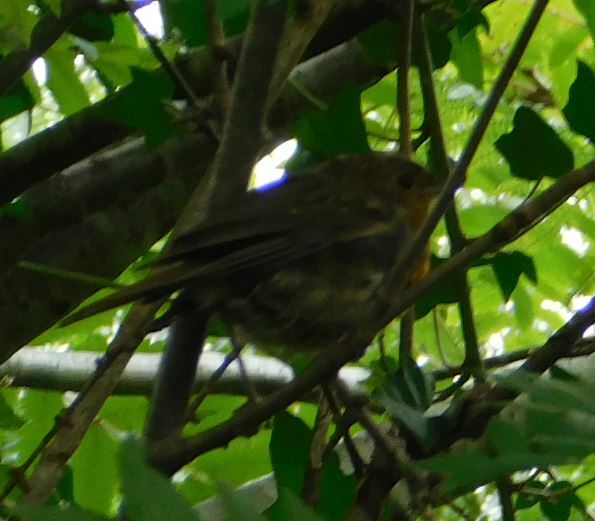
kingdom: Animalia
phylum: Chordata
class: Aves
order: Passeriformes
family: Muscicapidae
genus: Erithacus
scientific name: Erithacus rubecula
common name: European robin
